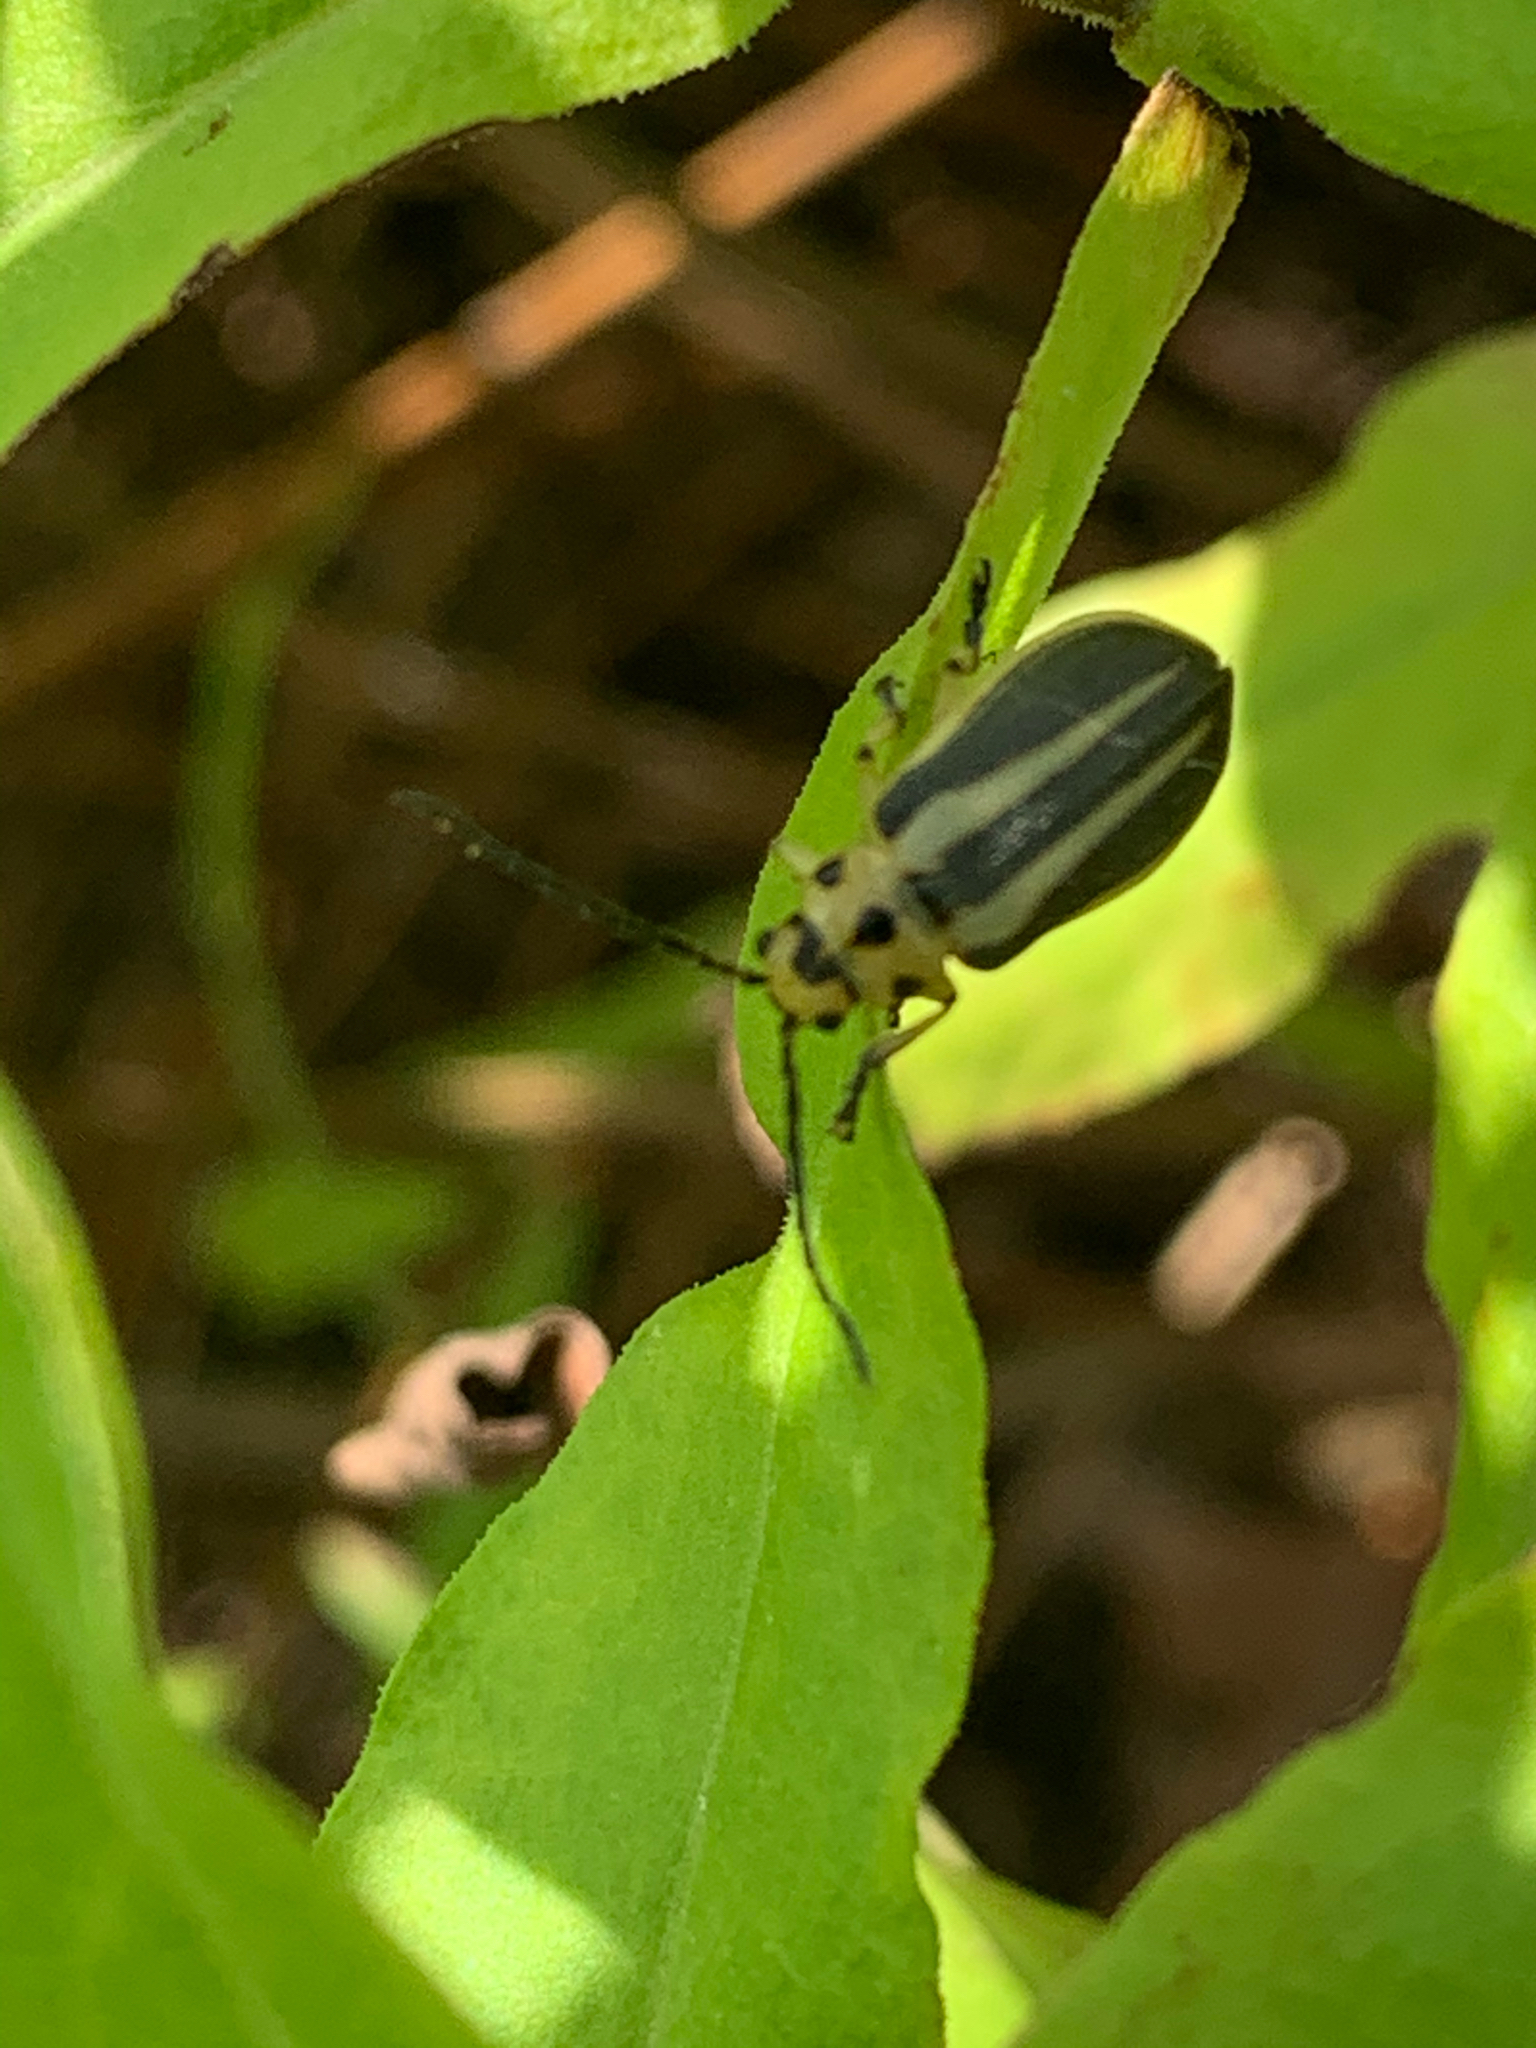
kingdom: Animalia
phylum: Arthropoda
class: Insecta
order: Coleoptera
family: Chrysomelidae
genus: Trirhabda
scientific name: Trirhabda bacharidis
